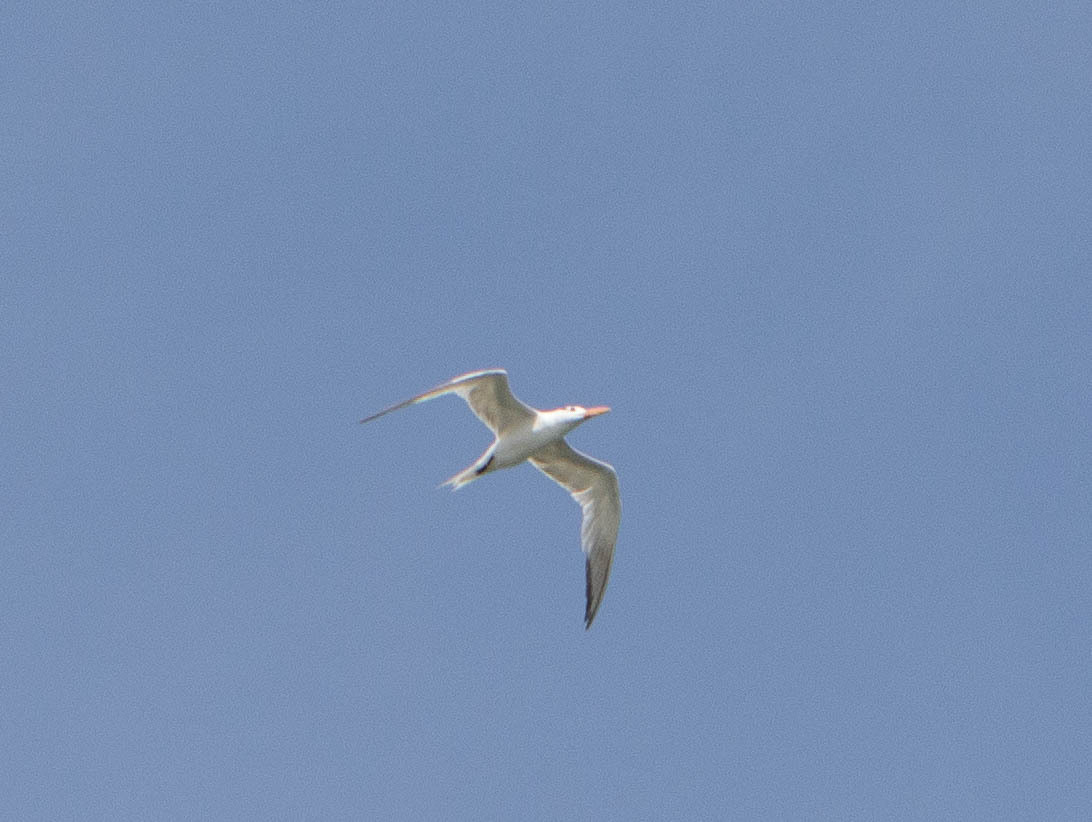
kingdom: Animalia
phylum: Chordata
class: Aves
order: Charadriiformes
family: Laridae
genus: Thalasseus
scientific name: Thalasseus maximus
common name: Royal tern
